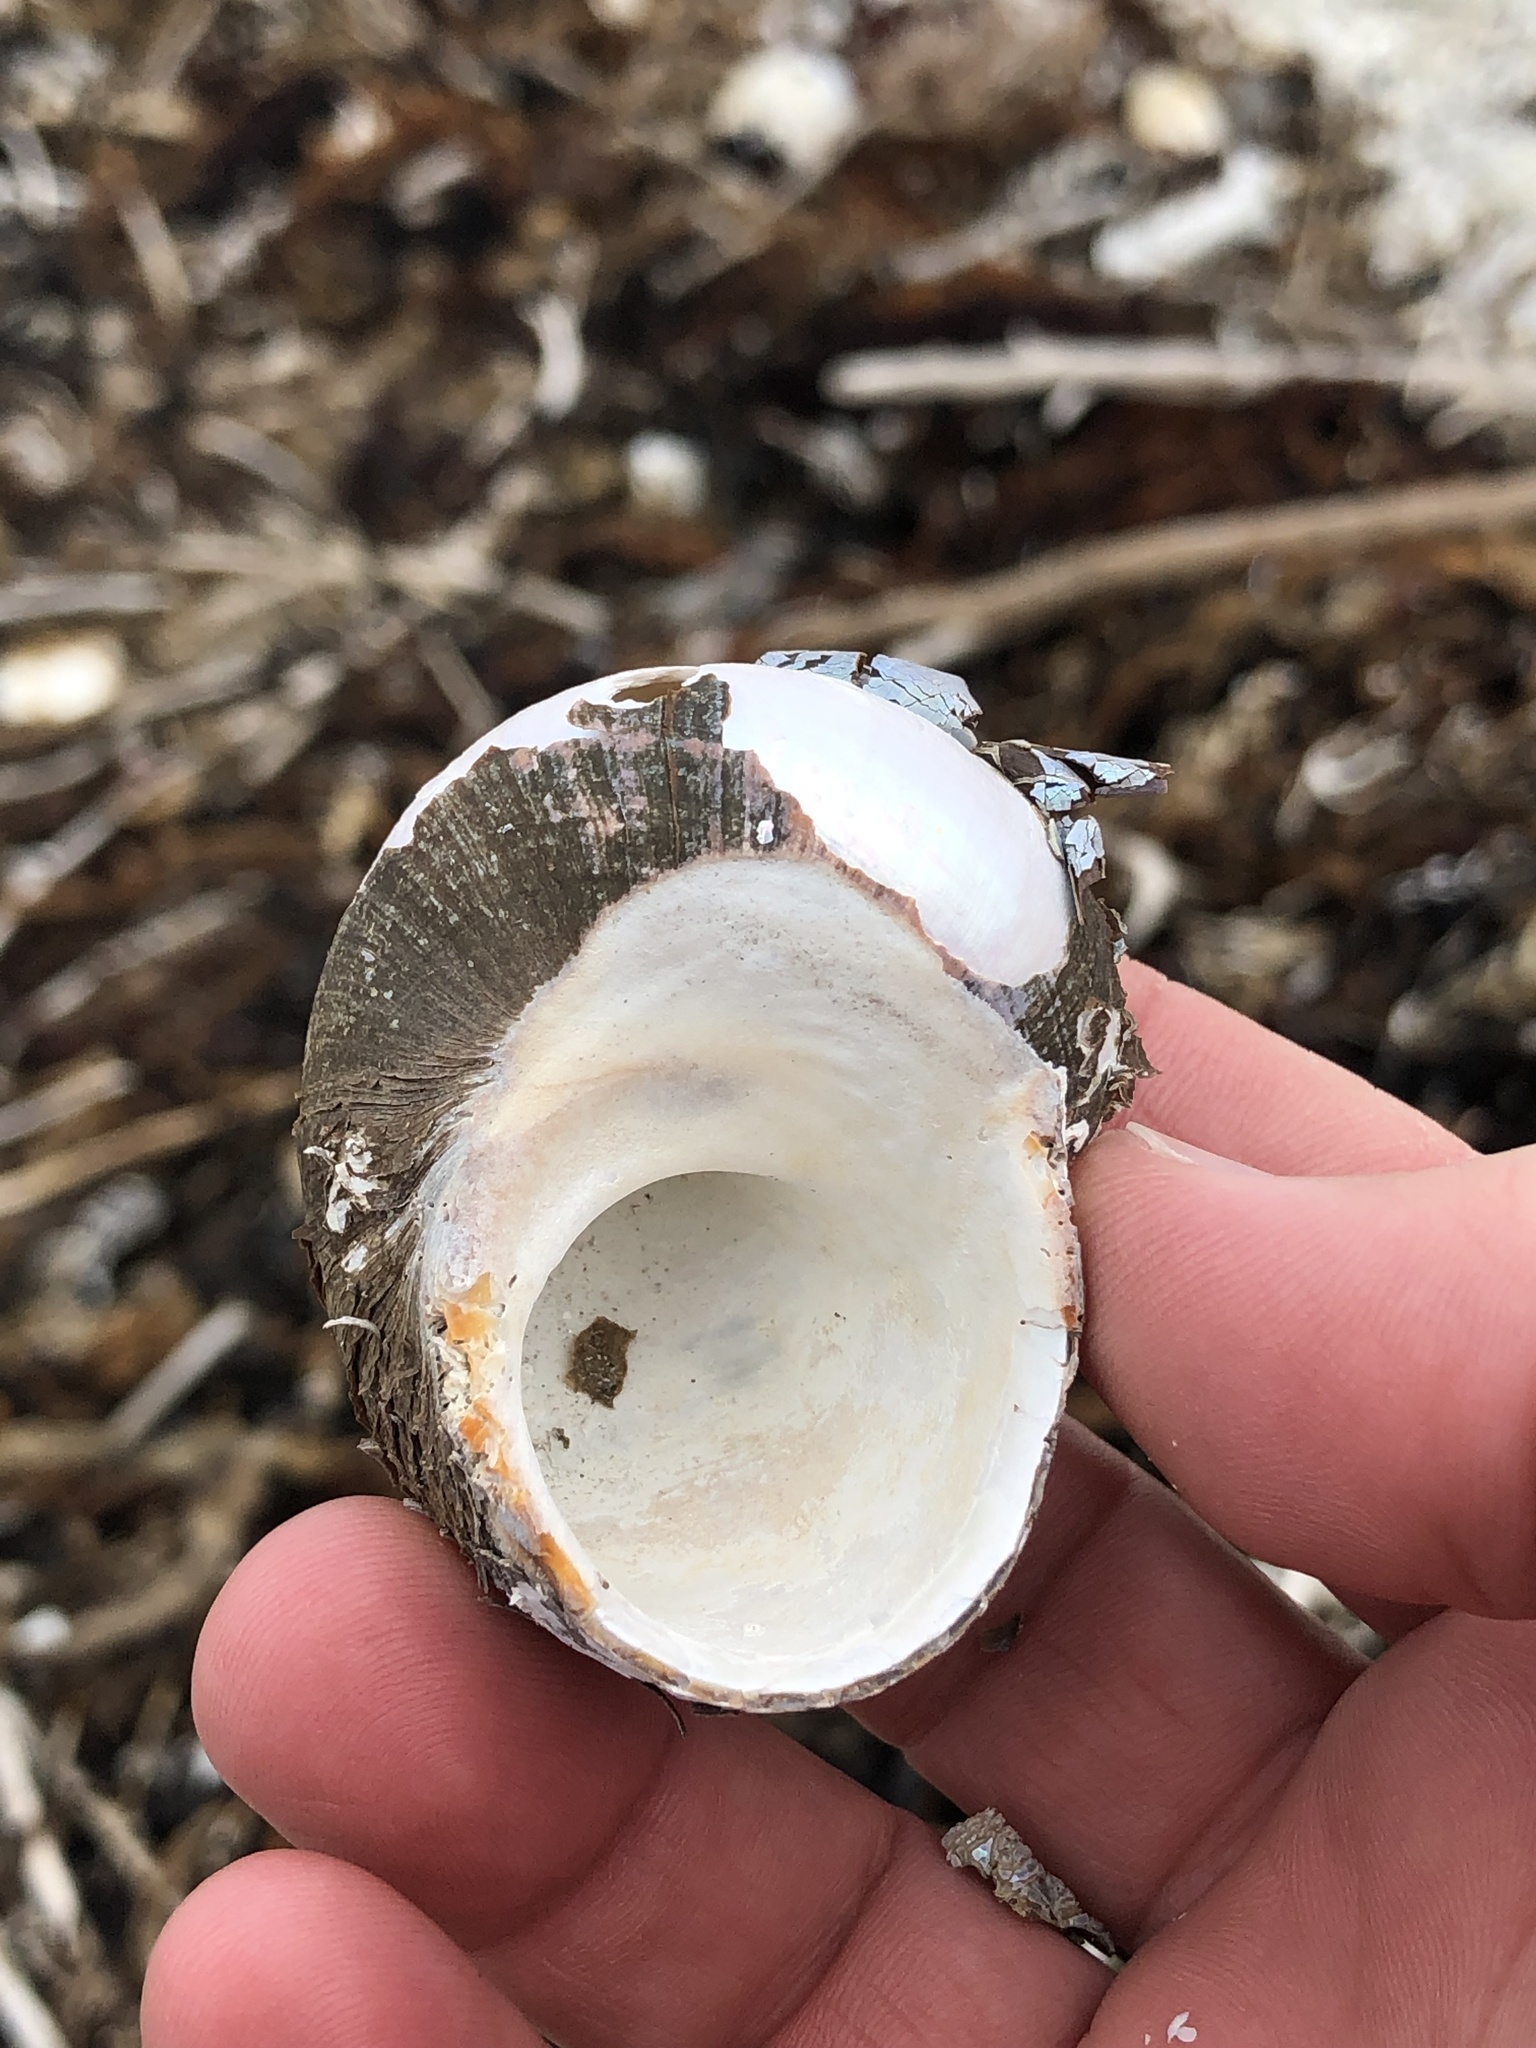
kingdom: Animalia
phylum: Mollusca
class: Gastropoda
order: Trochida
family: Turbinidae
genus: Lunella
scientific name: Lunella smaragda
